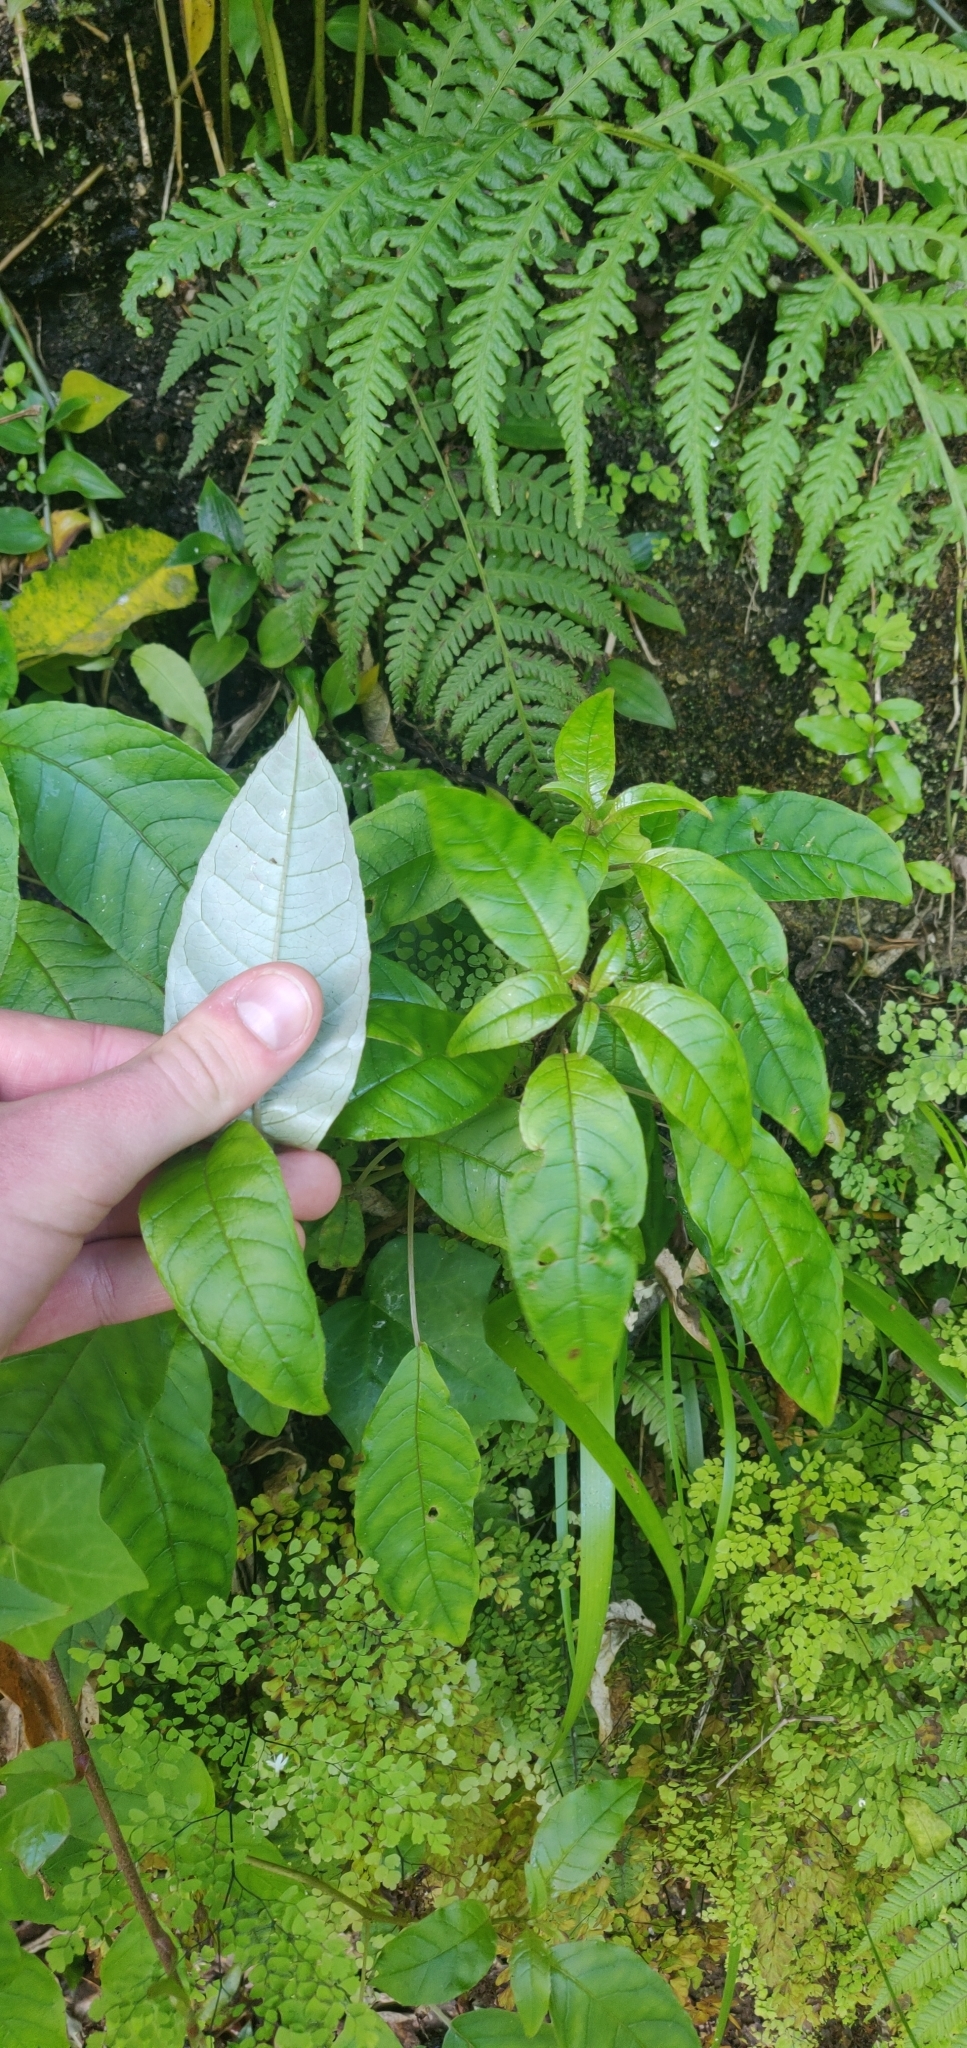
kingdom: Plantae
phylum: Tracheophyta
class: Magnoliopsida
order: Myrtales
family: Onagraceae
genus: Fuchsia
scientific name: Fuchsia excorticata
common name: Tree fuchsia
